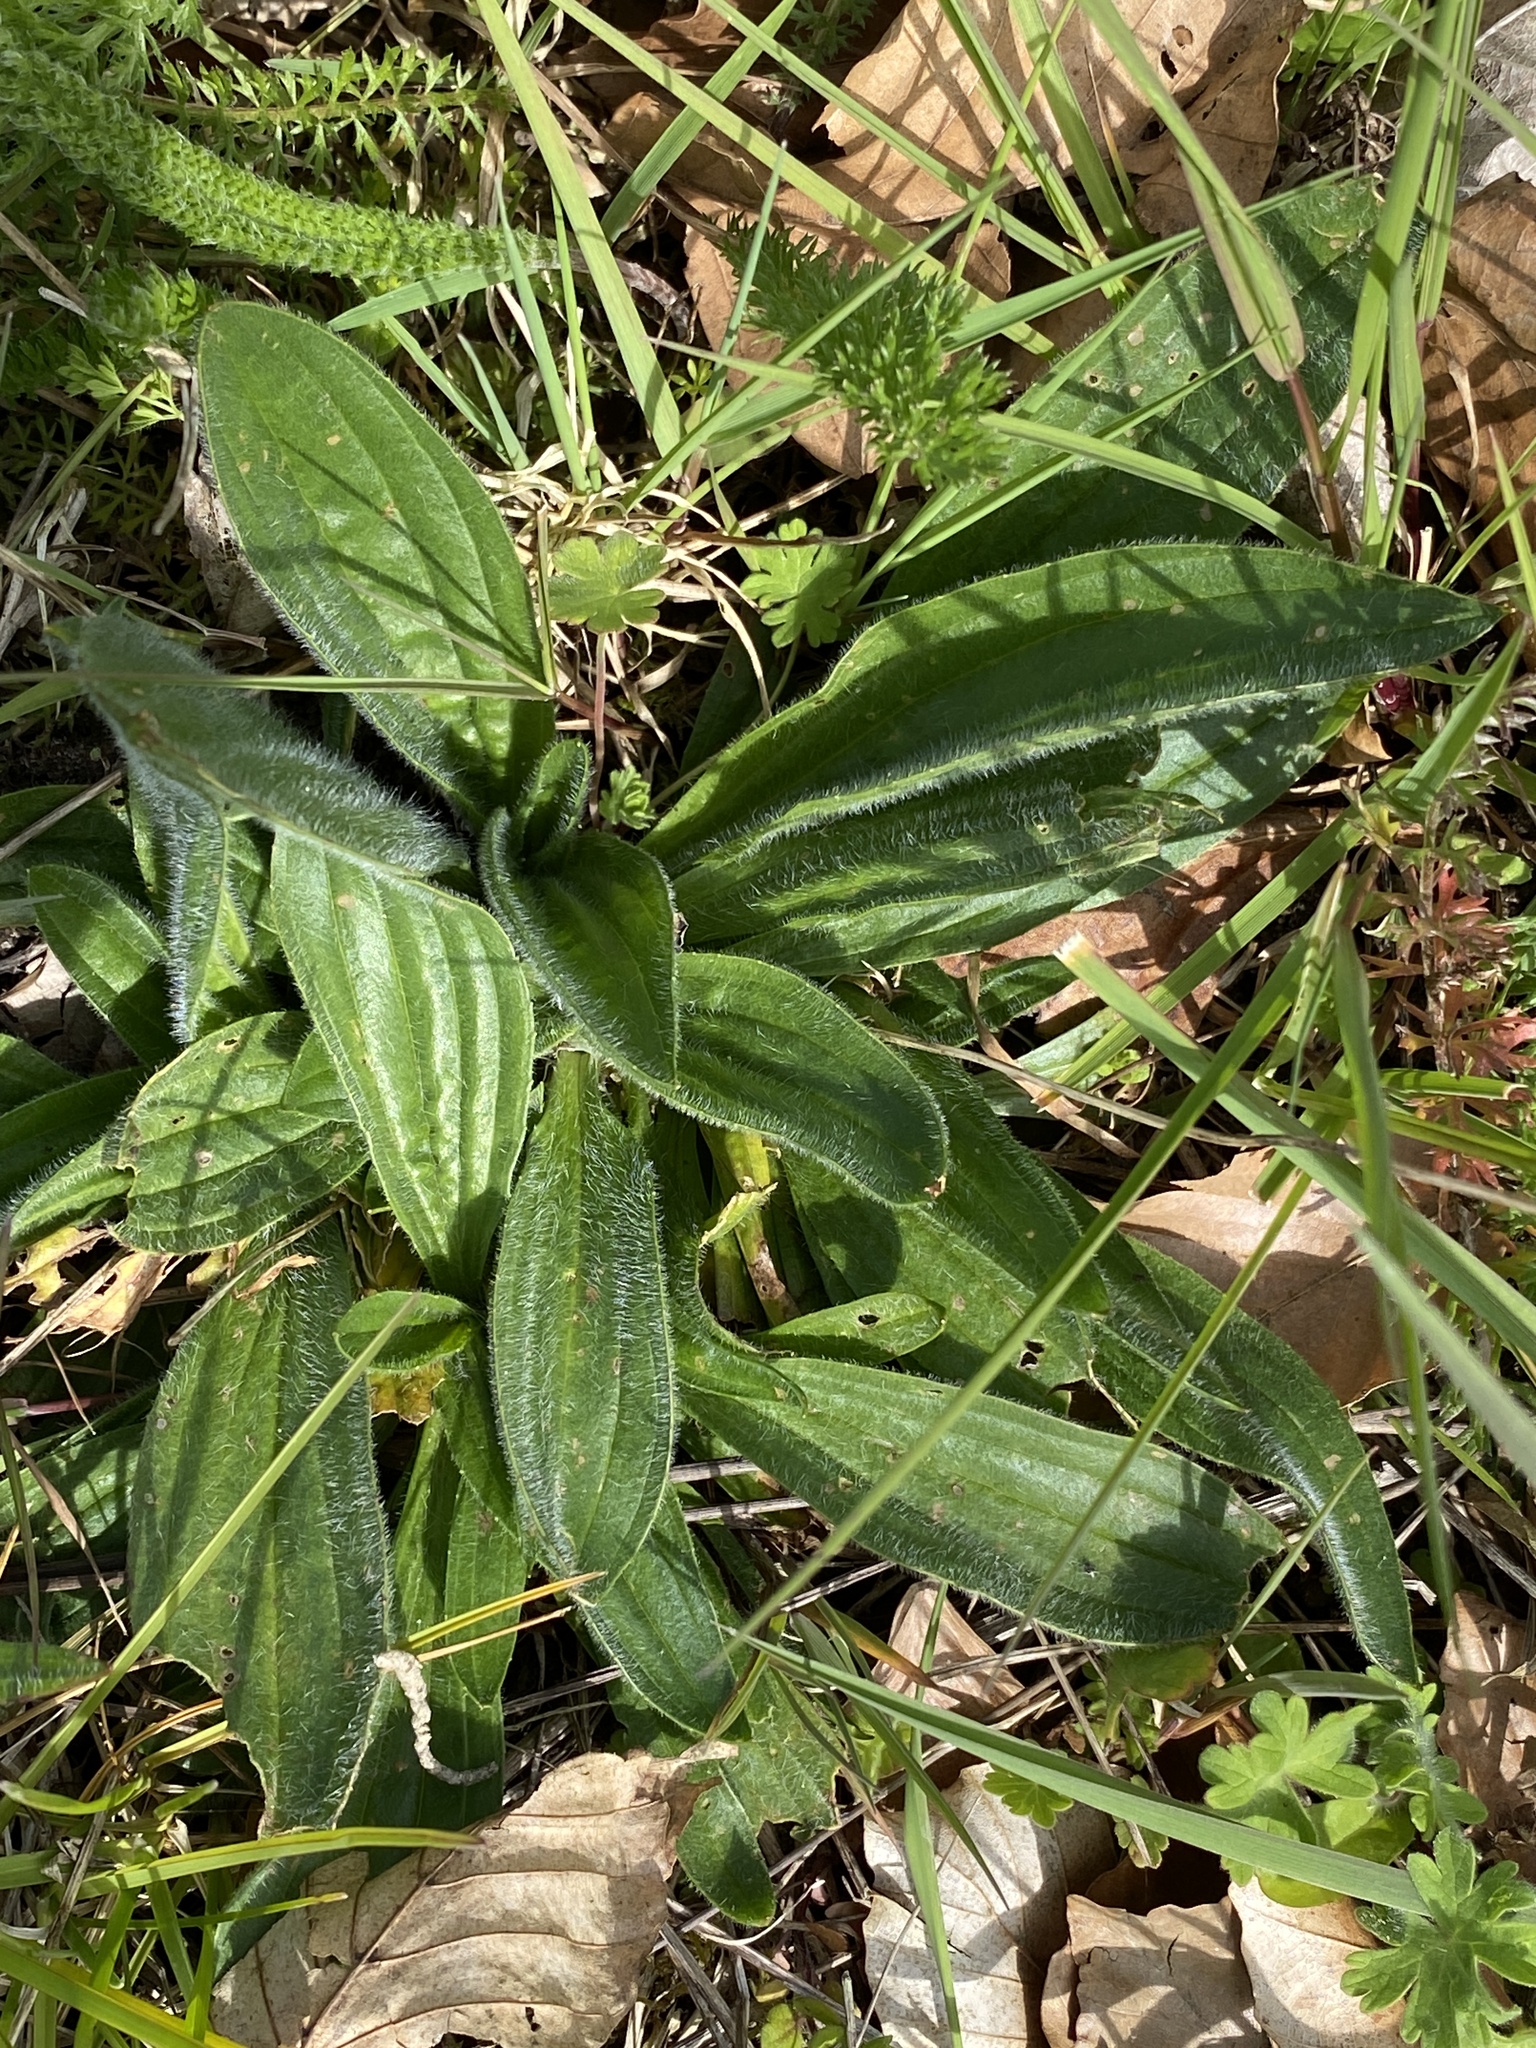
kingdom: Plantae
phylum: Tracheophyta
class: Magnoliopsida
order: Lamiales
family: Plantaginaceae
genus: Plantago
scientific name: Plantago lanceolata
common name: Ribwort plantain
